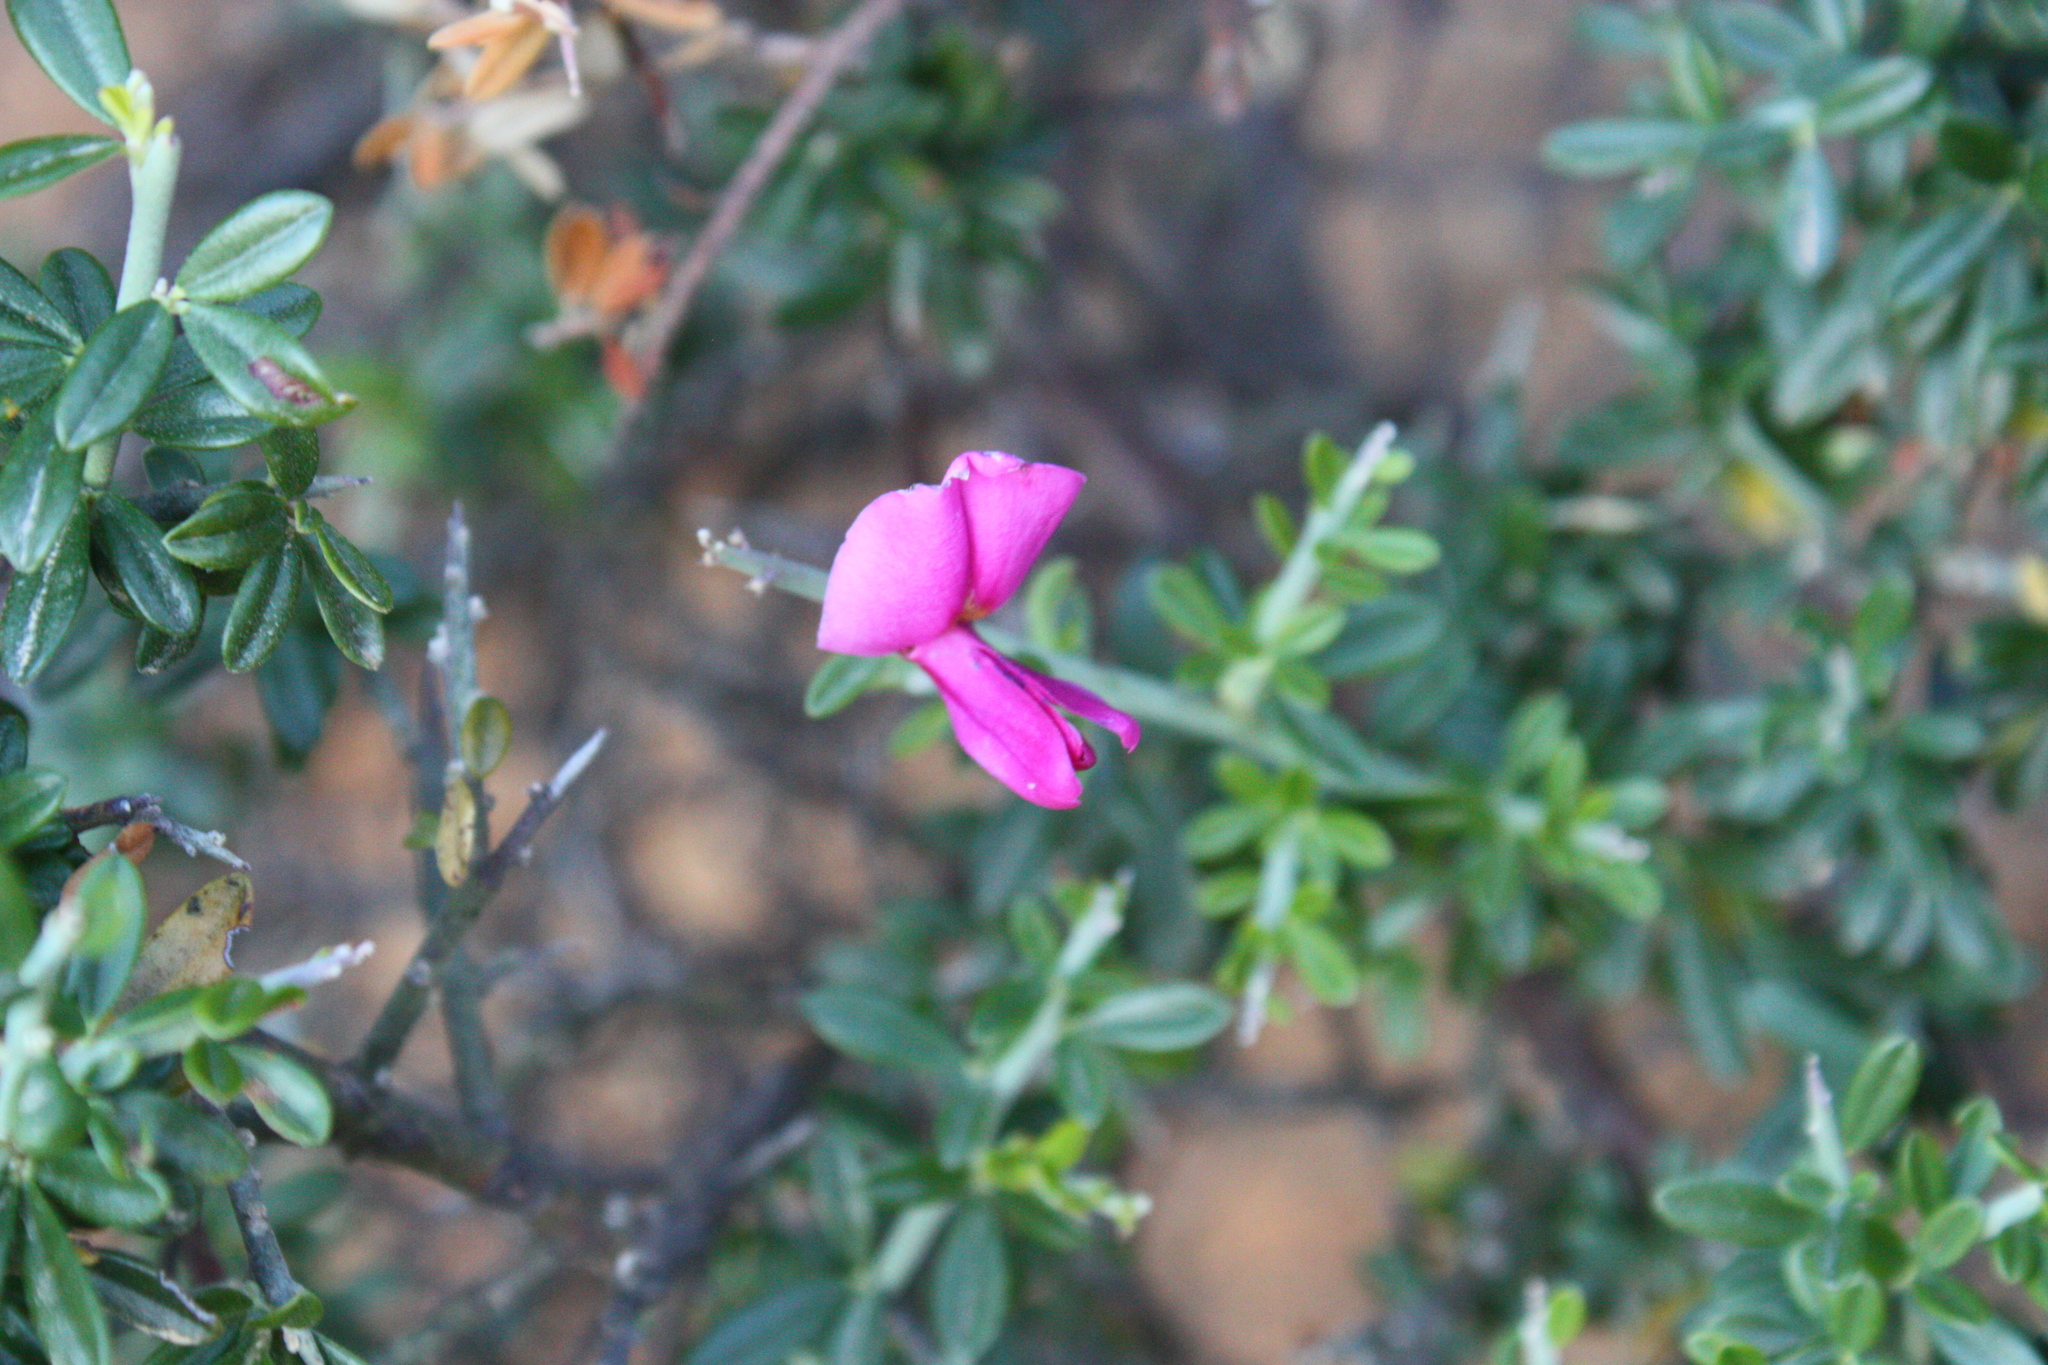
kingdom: Plantae
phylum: Tracheophyta
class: Magnoliopsida
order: Fabales
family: Fabaceae
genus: Pickeringia
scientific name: Pickeringia montana
